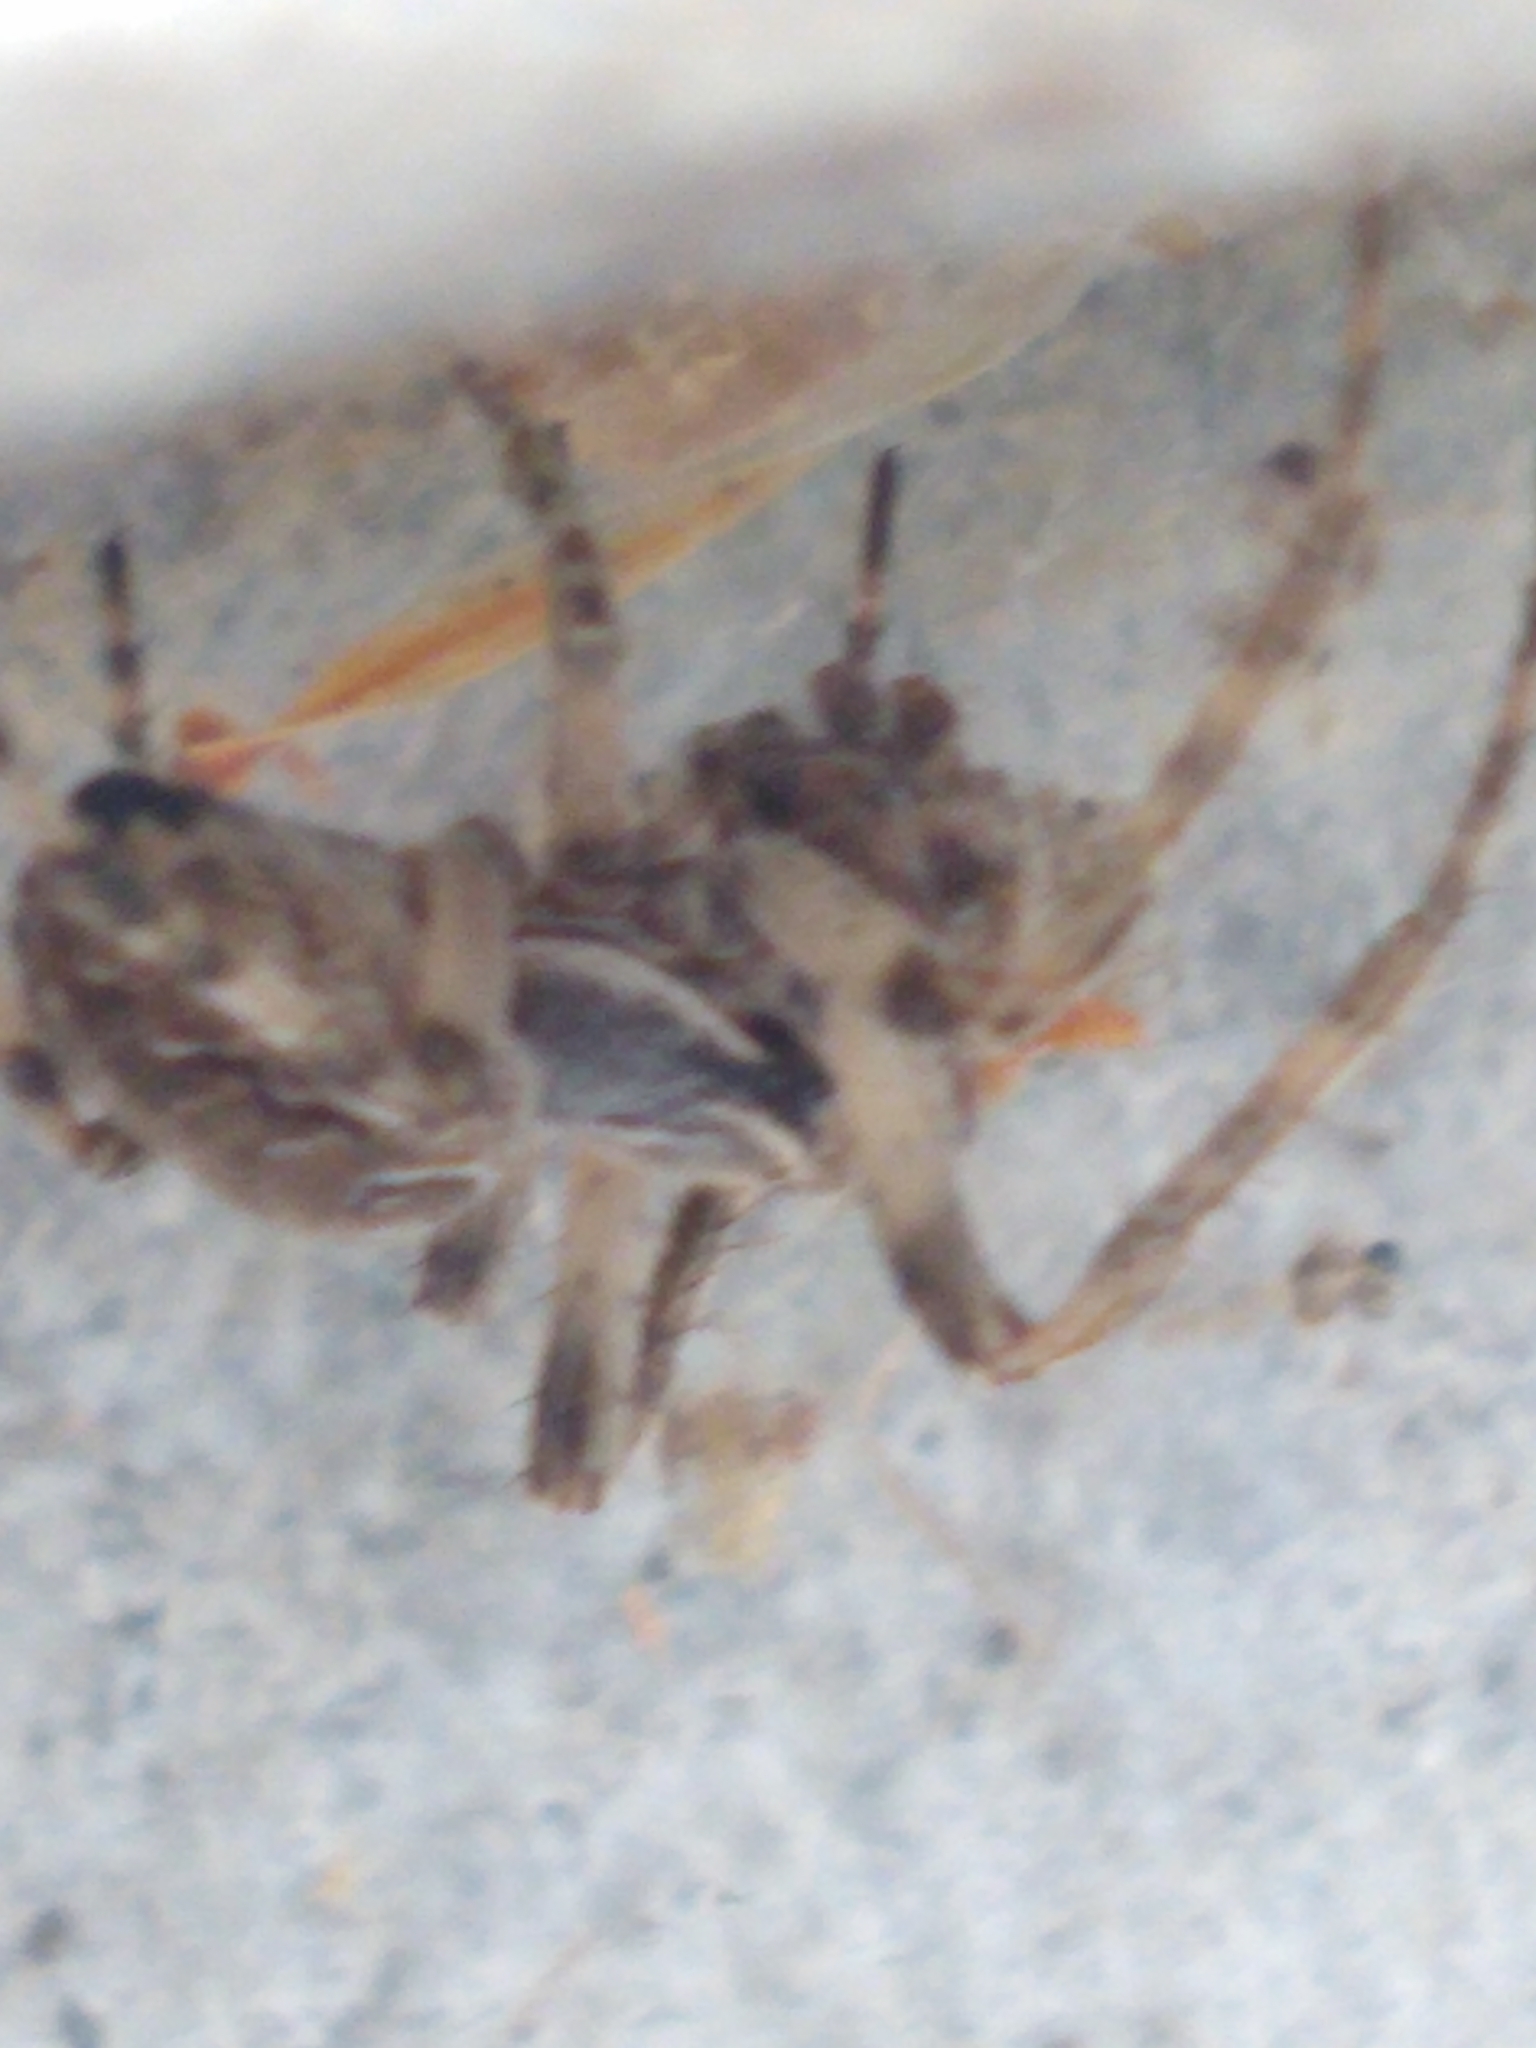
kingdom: Animalia
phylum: Arthropoda
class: Arachnida
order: Araneae
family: Araneidae
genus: Larinioides
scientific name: Larinioides sclopetarius
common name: Bridge orbweaver
